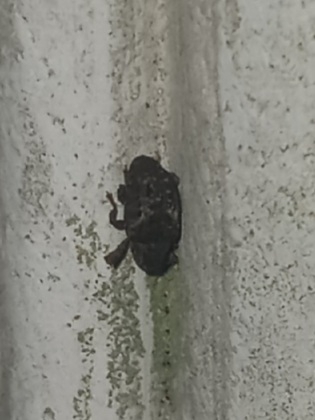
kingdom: Animalia
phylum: Arthropoda
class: Insecta
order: Coleoptera
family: Curculionidae
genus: Apteromechus
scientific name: Apteromechus ferratus
